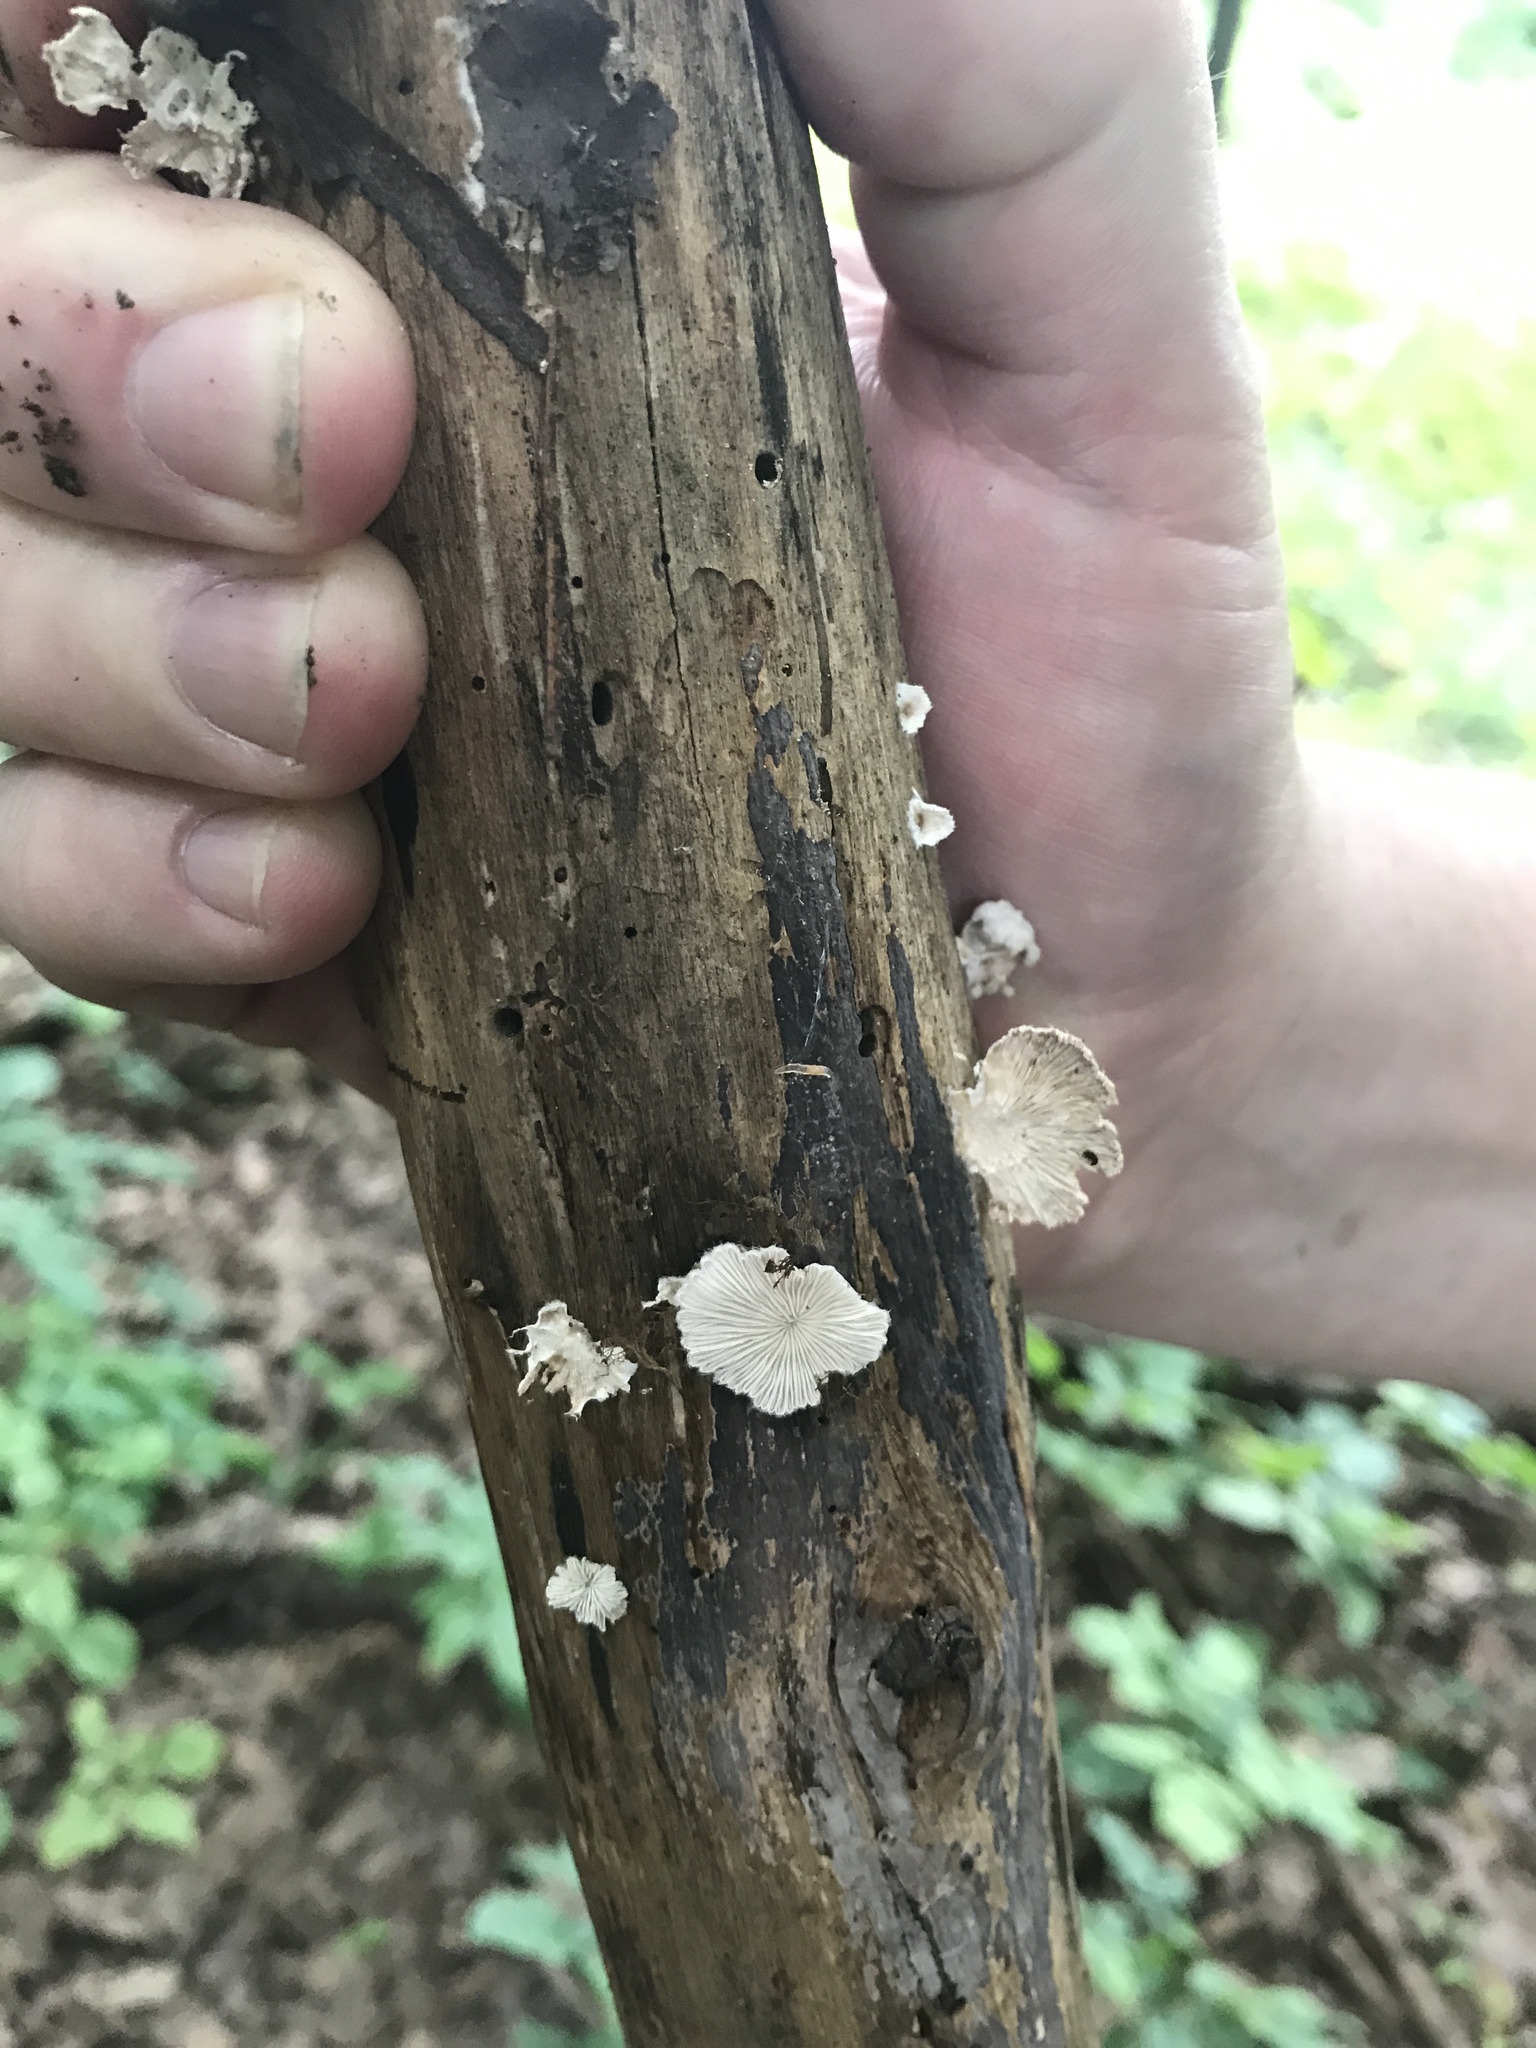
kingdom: Fungi
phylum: Basidiomycota
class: Agaricomycetes
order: Agaricales
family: Schizophyllaceae
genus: Schizophyllum
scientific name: Schizophyllum commune
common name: Common porecrust
